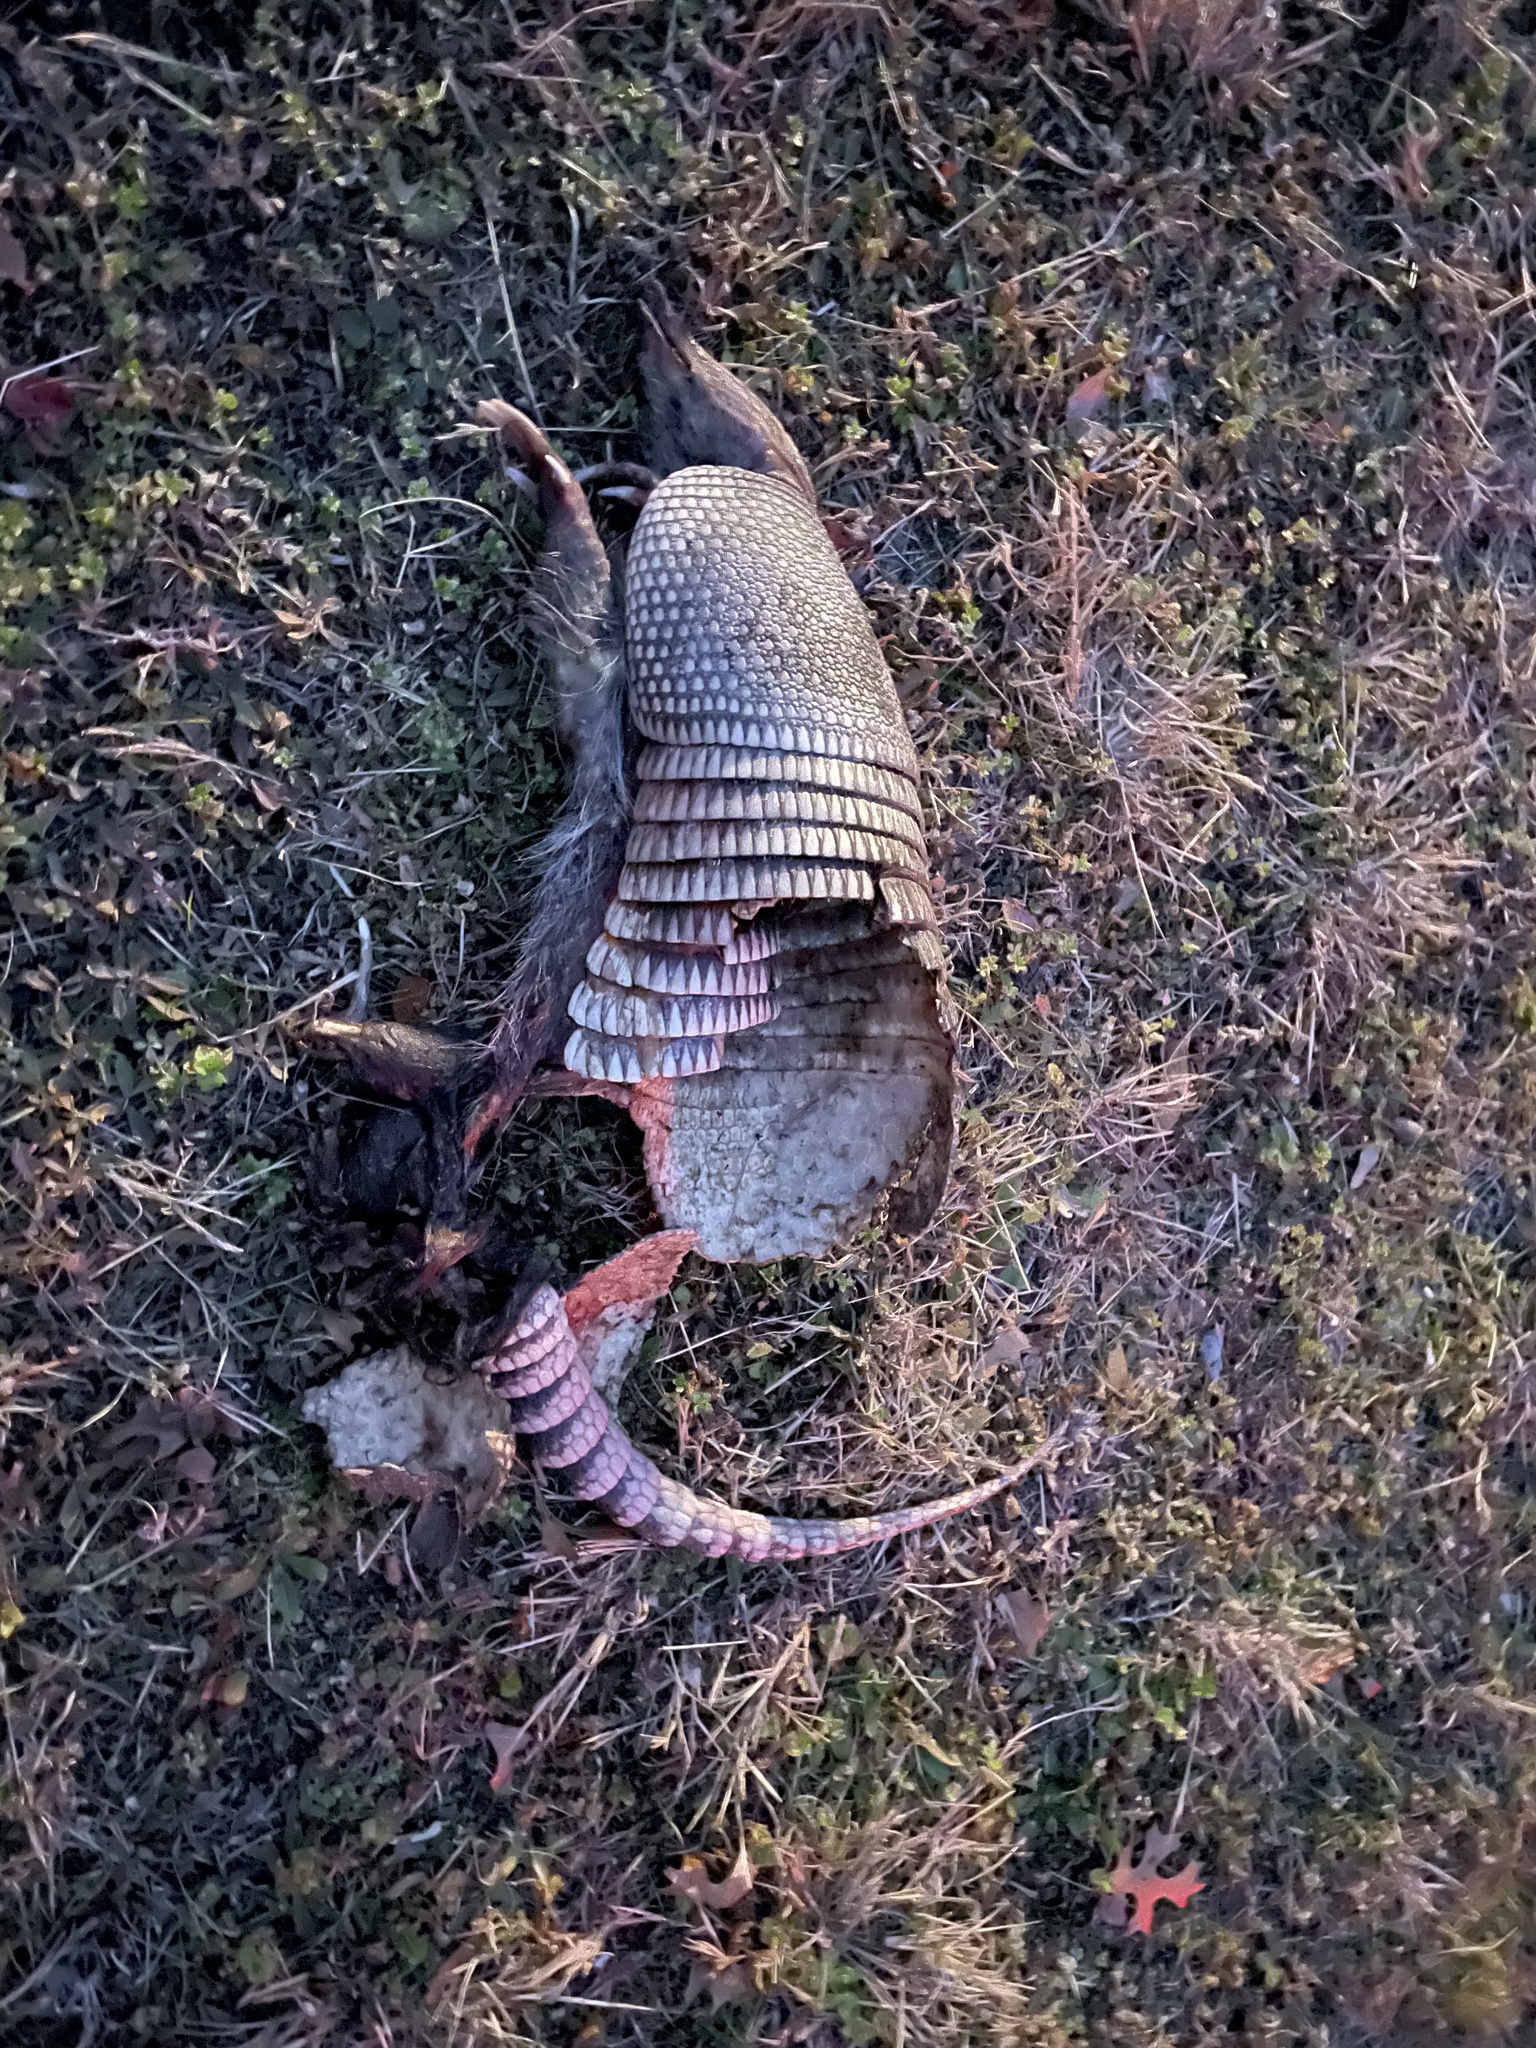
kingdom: Animalia
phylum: Chordata
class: Mammalia
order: Cingulata
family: Dasypodidae
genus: Dasypus
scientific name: Dasypus novemcinctus
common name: Nine-banded armadillo
